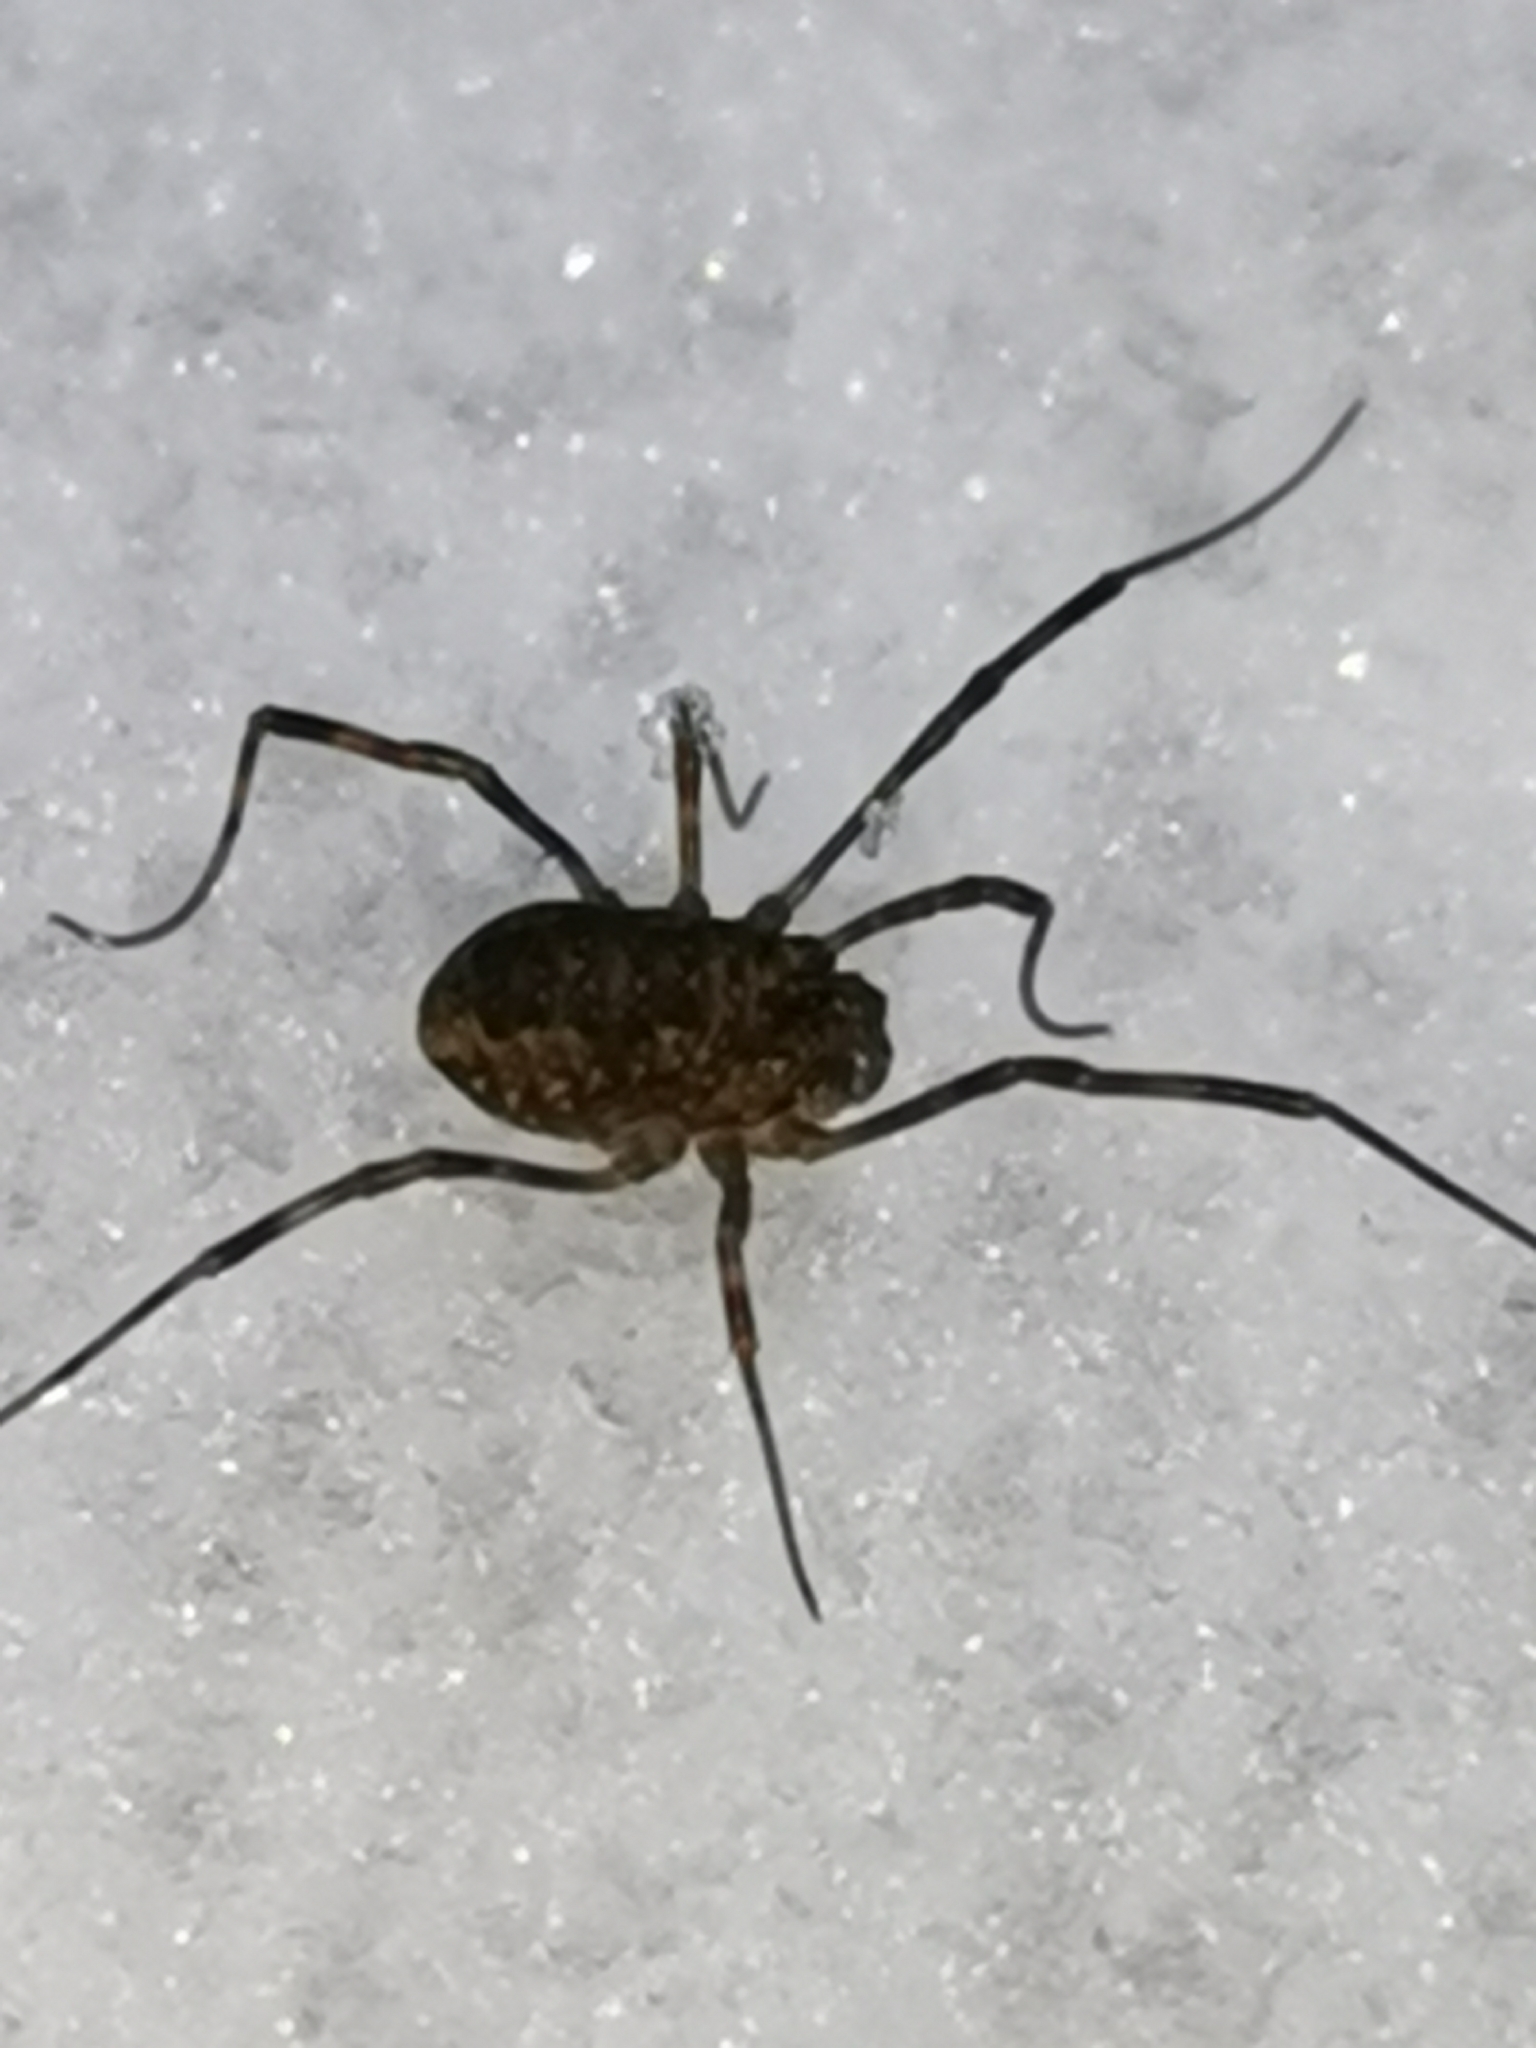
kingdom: Animalia
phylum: Arthropoda
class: Arachnida
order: Opiliones
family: Phalangiidae
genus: Rilaena
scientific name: Rilaena triangularis
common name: Spring harvestman
